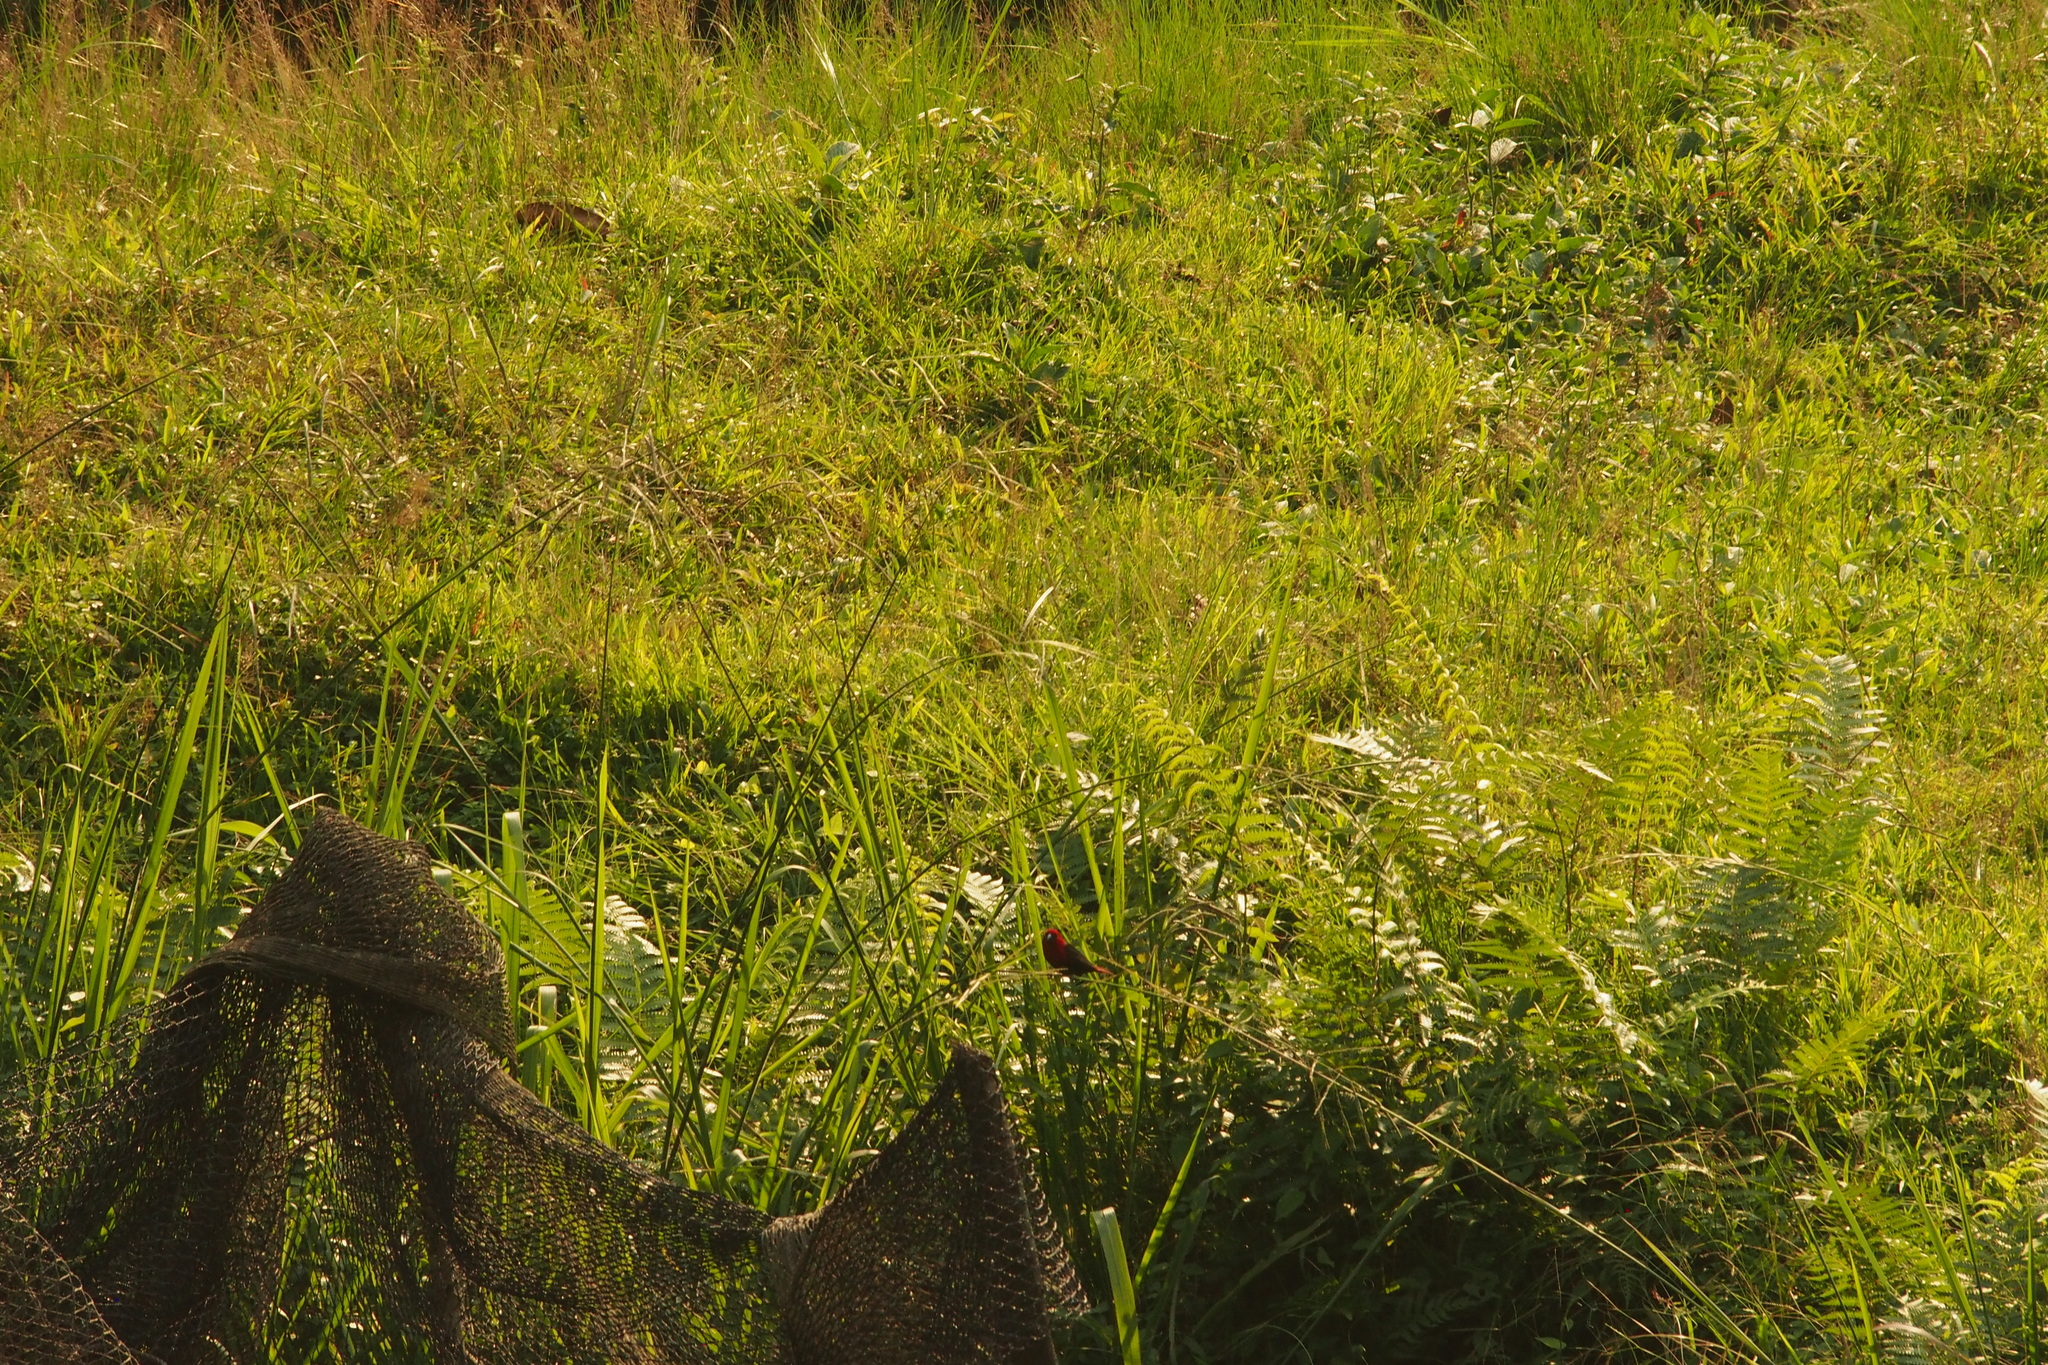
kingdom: Animalia
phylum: Chordata
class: Aves
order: Passeriformes
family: Estrildidae
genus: Pyrenestes
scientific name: Pyrenestes ostrinus
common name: Black-bellied seedcracker
